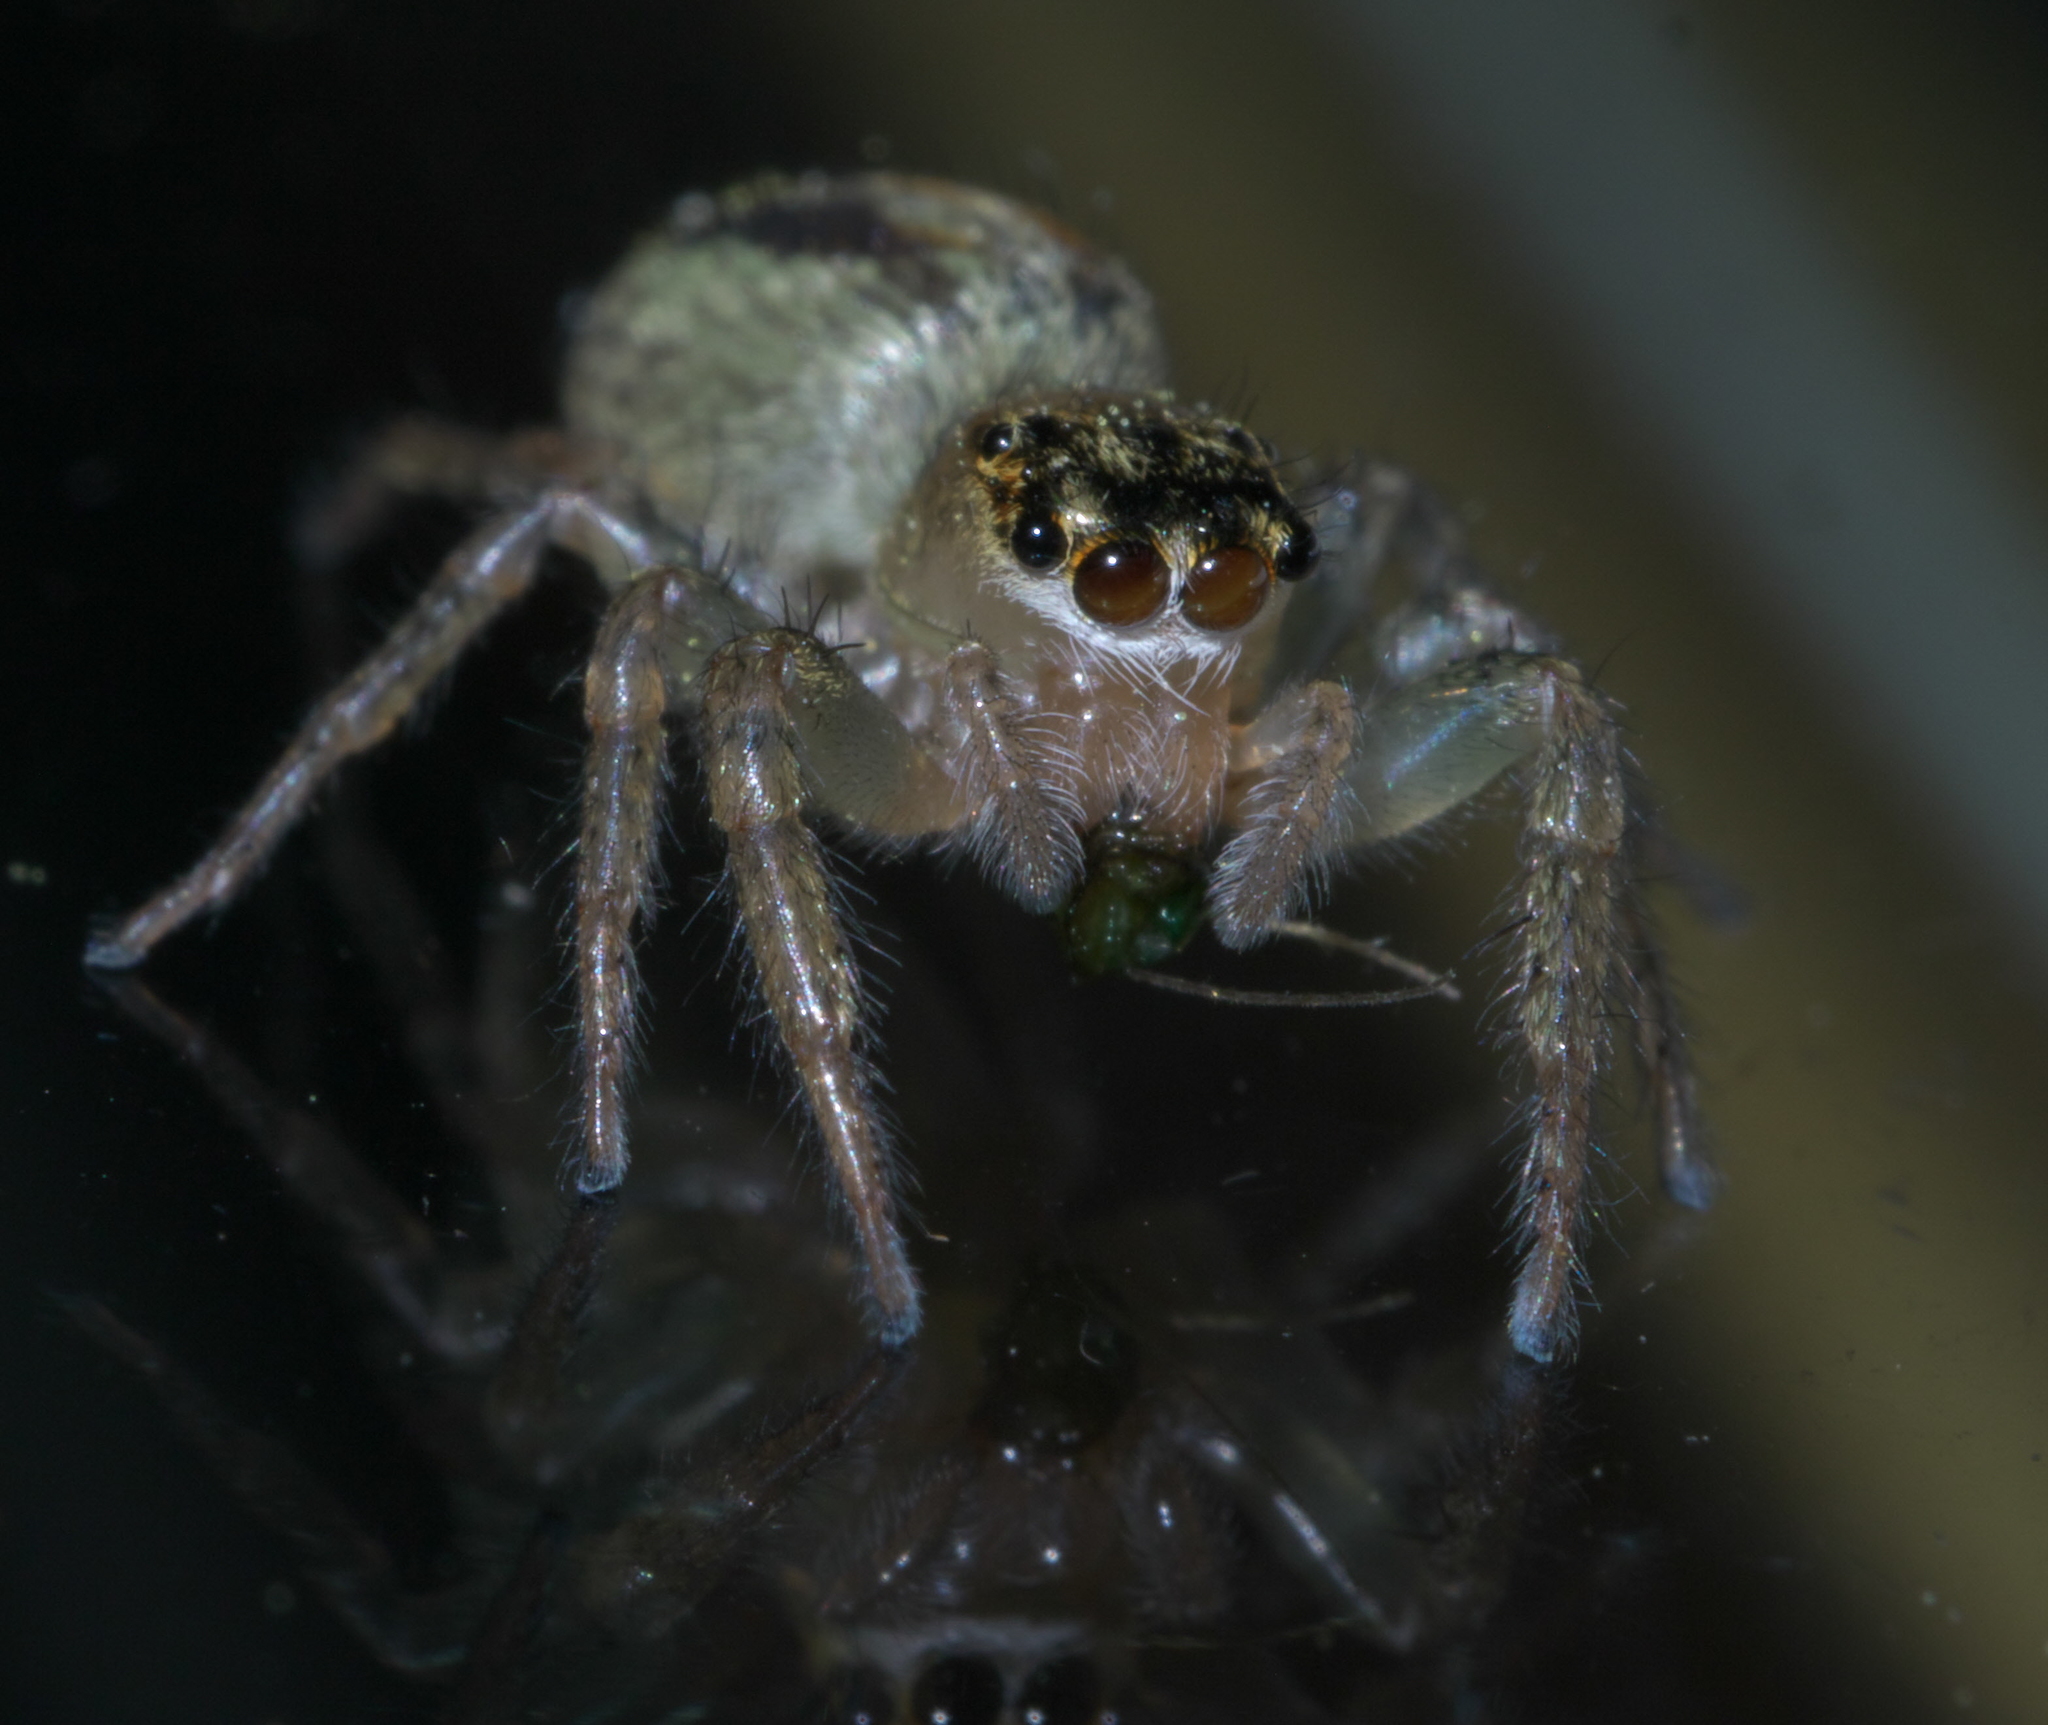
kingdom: Animalia
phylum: Arthropoda
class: Arachnida
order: Araneae
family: Salticidae
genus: Maevia
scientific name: Maevia inclemens
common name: Dimorphic jumper
